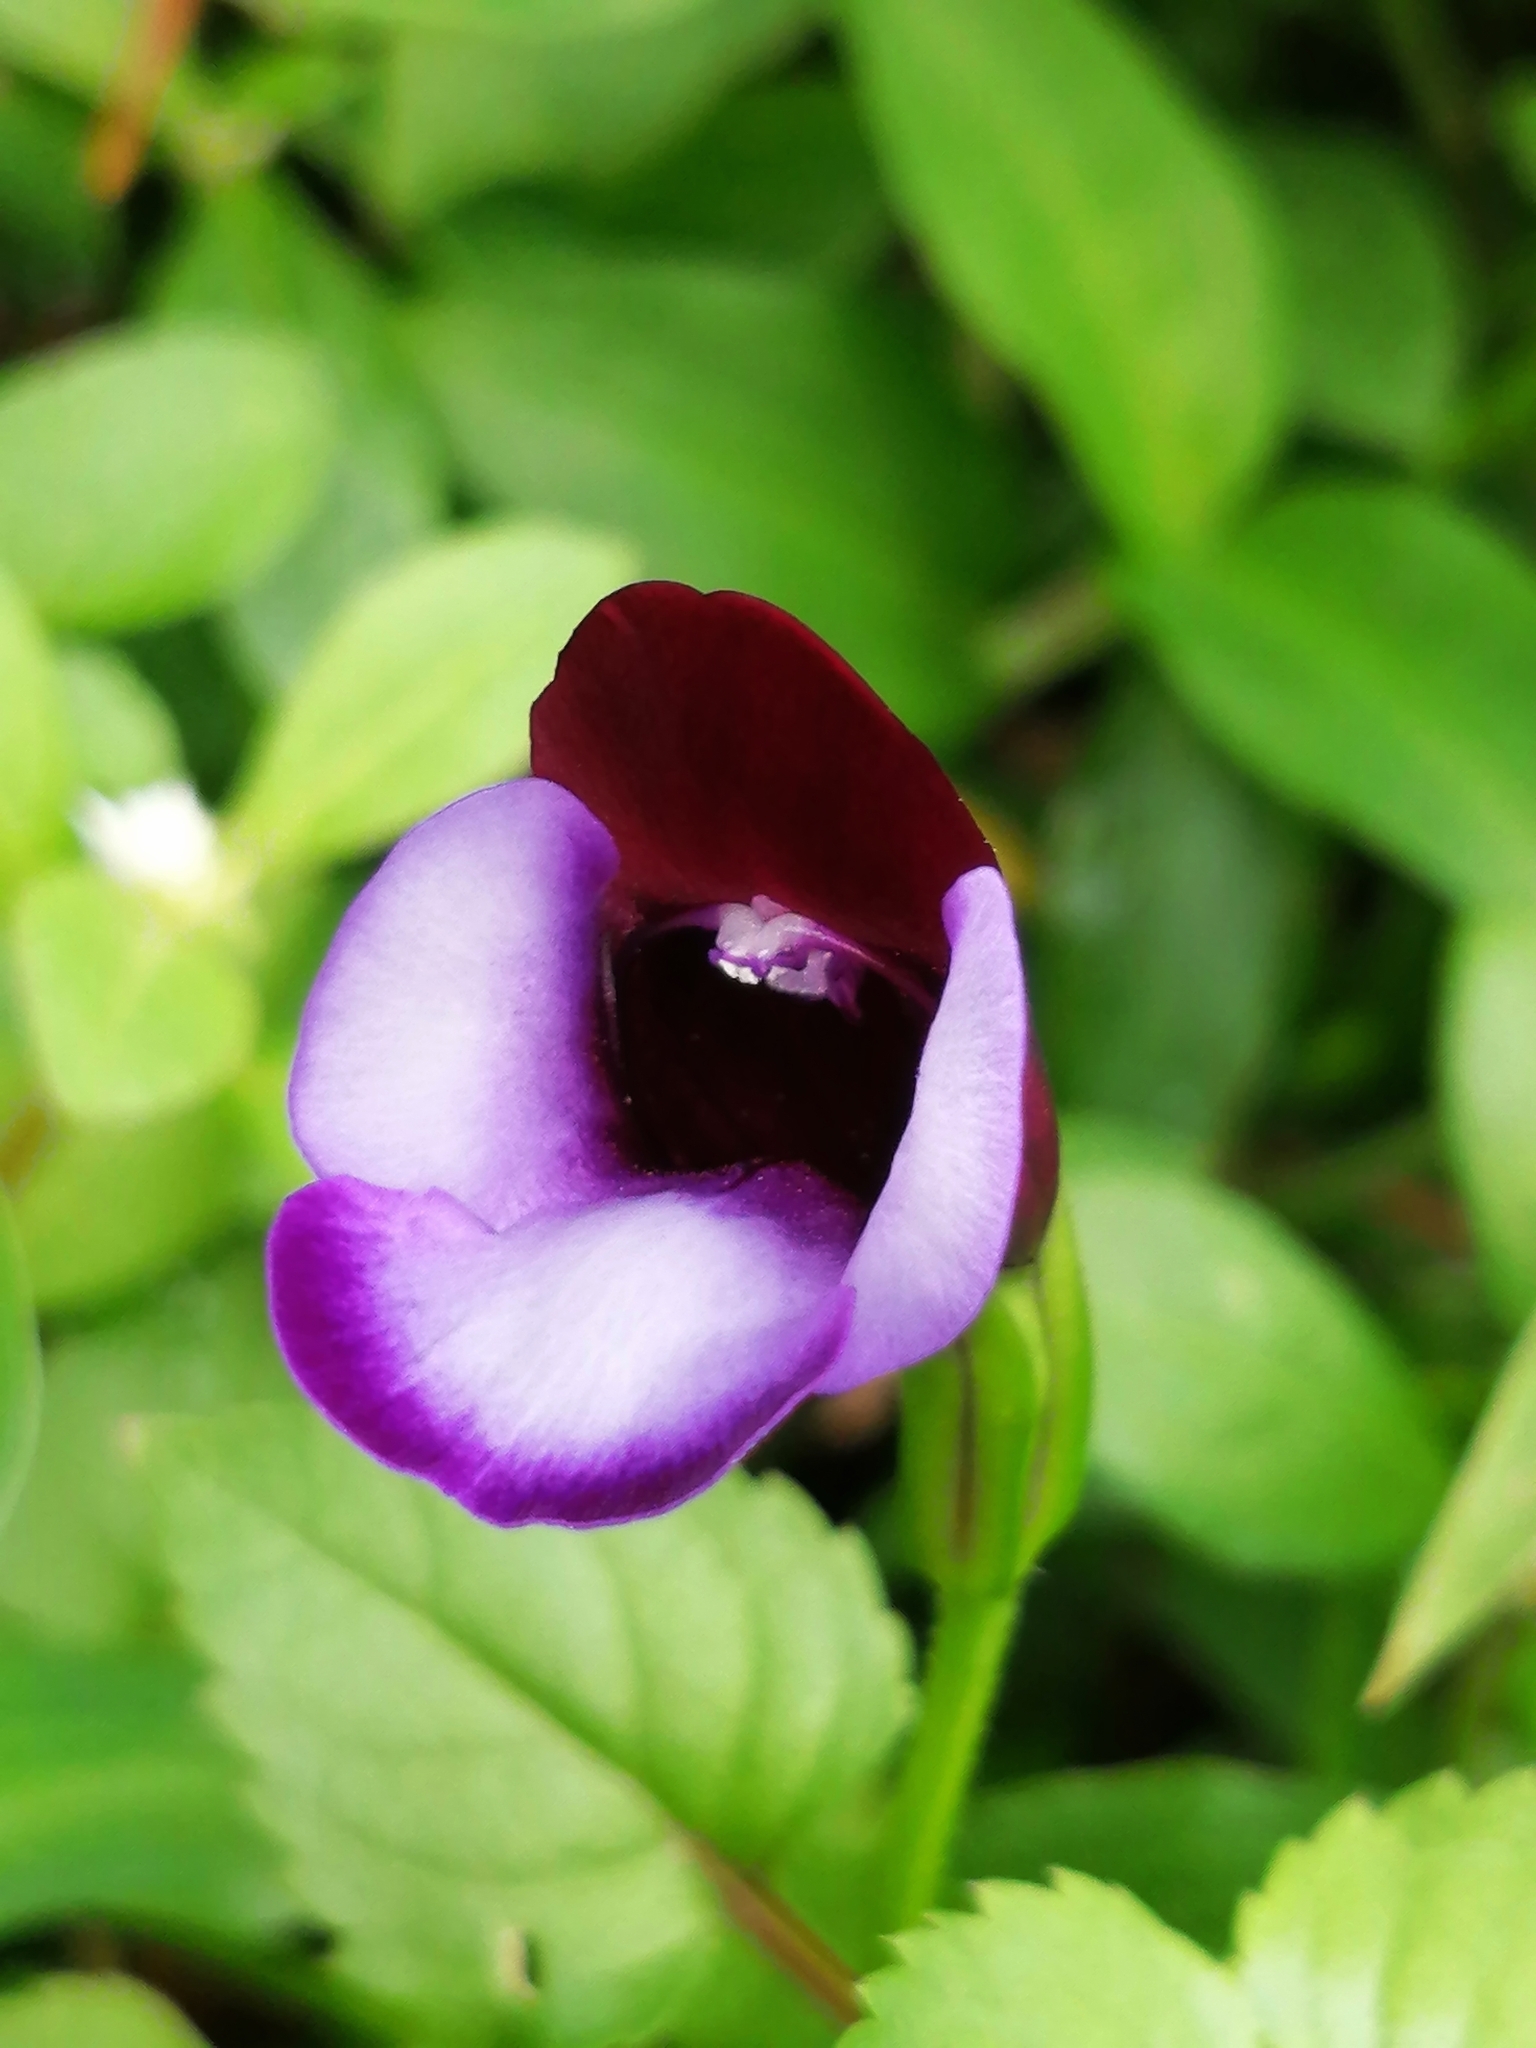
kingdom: Plantae
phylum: Tracheophyta
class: Magnoliopsida
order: Lamiales
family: Linderniaceae
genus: Torenia
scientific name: Torenia fournieri
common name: Bluewings
